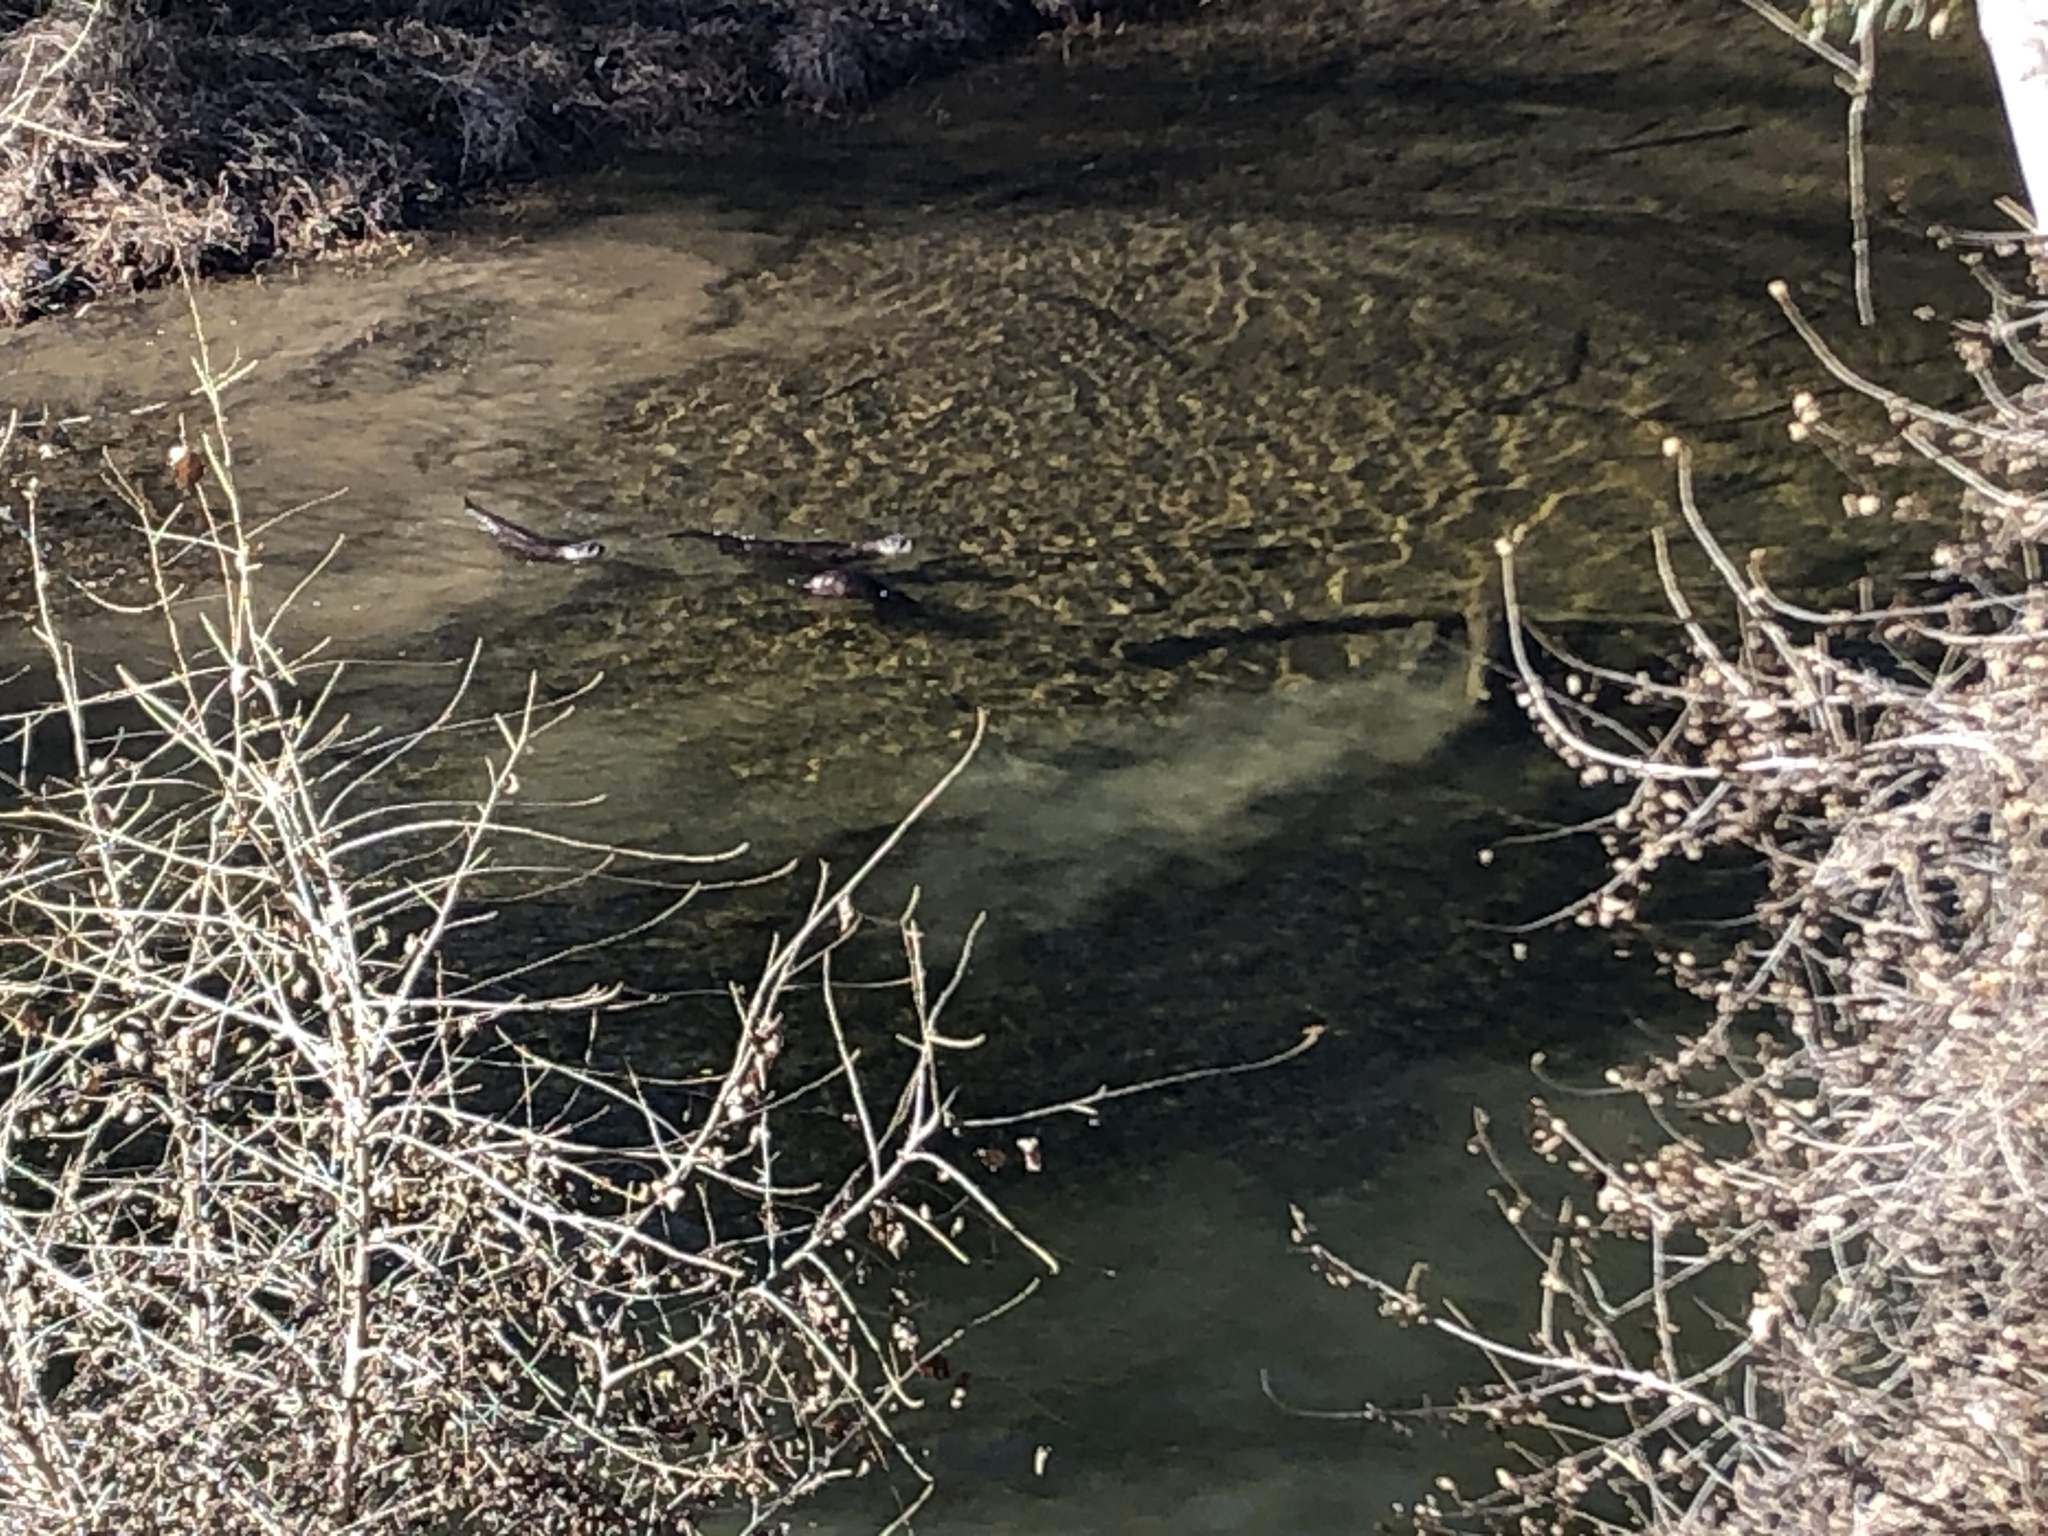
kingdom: Animalia
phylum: Chordata
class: Mammalia
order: Carnivora
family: Mustelidae
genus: Lontra
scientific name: Lontra canadensis
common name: North american river otter
